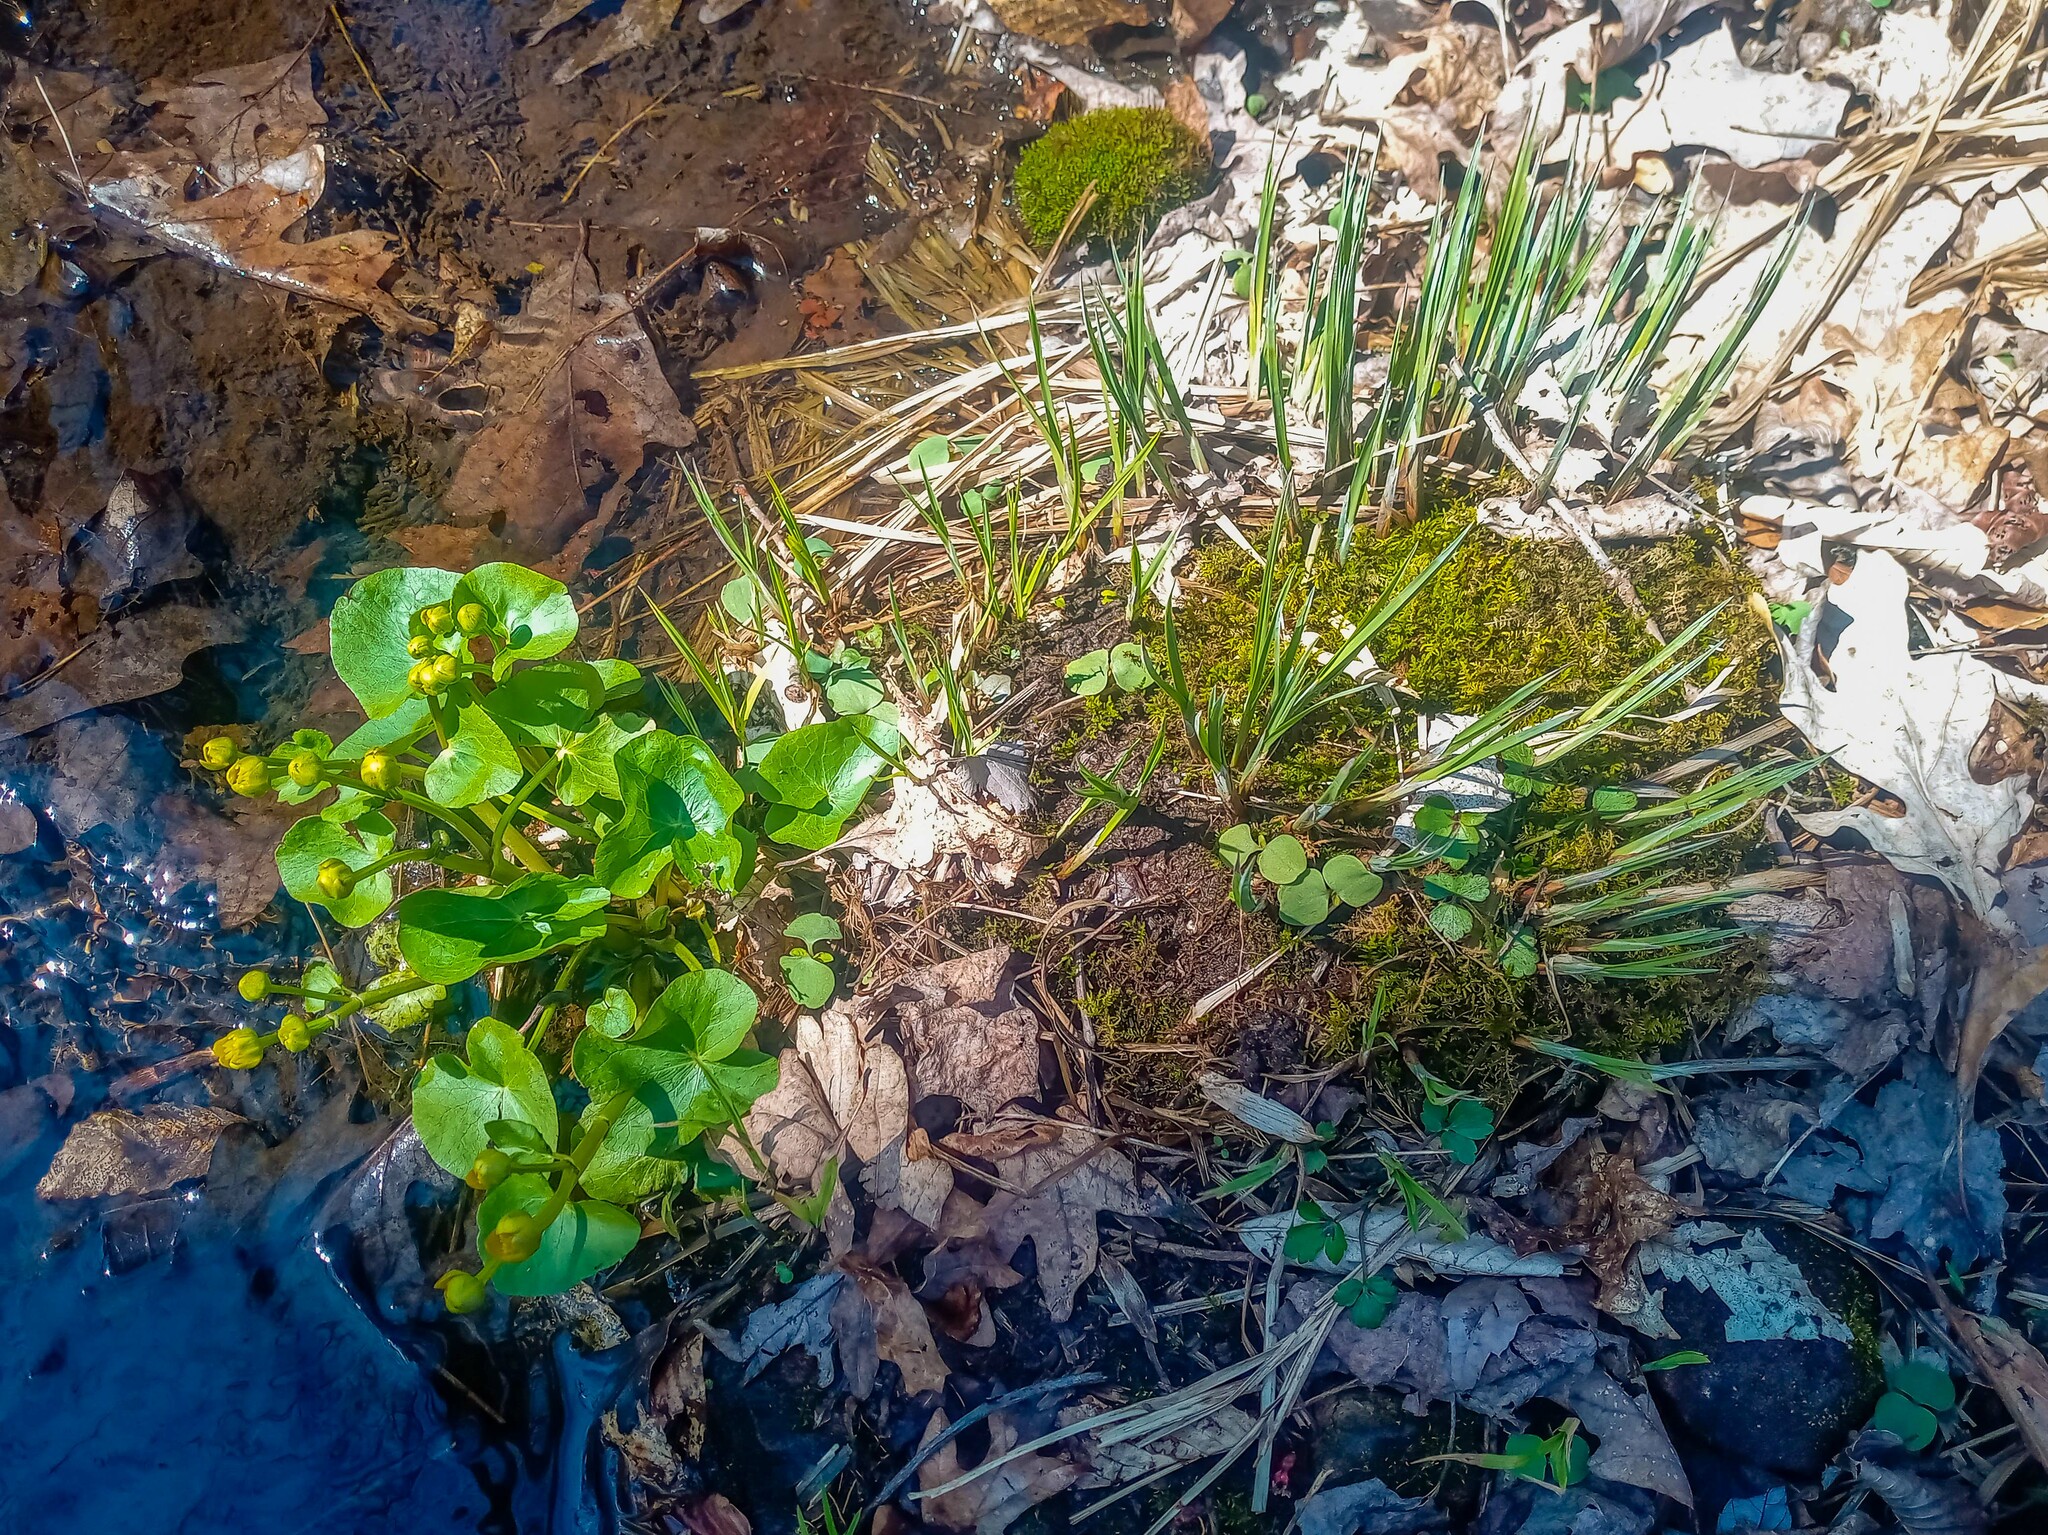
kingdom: Plantae
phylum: Tracheophyta
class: Magnoliopsida
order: Ranunculales
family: Ranunculaceae
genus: Caltha
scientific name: Caltha palustris
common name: Marsh marigold
